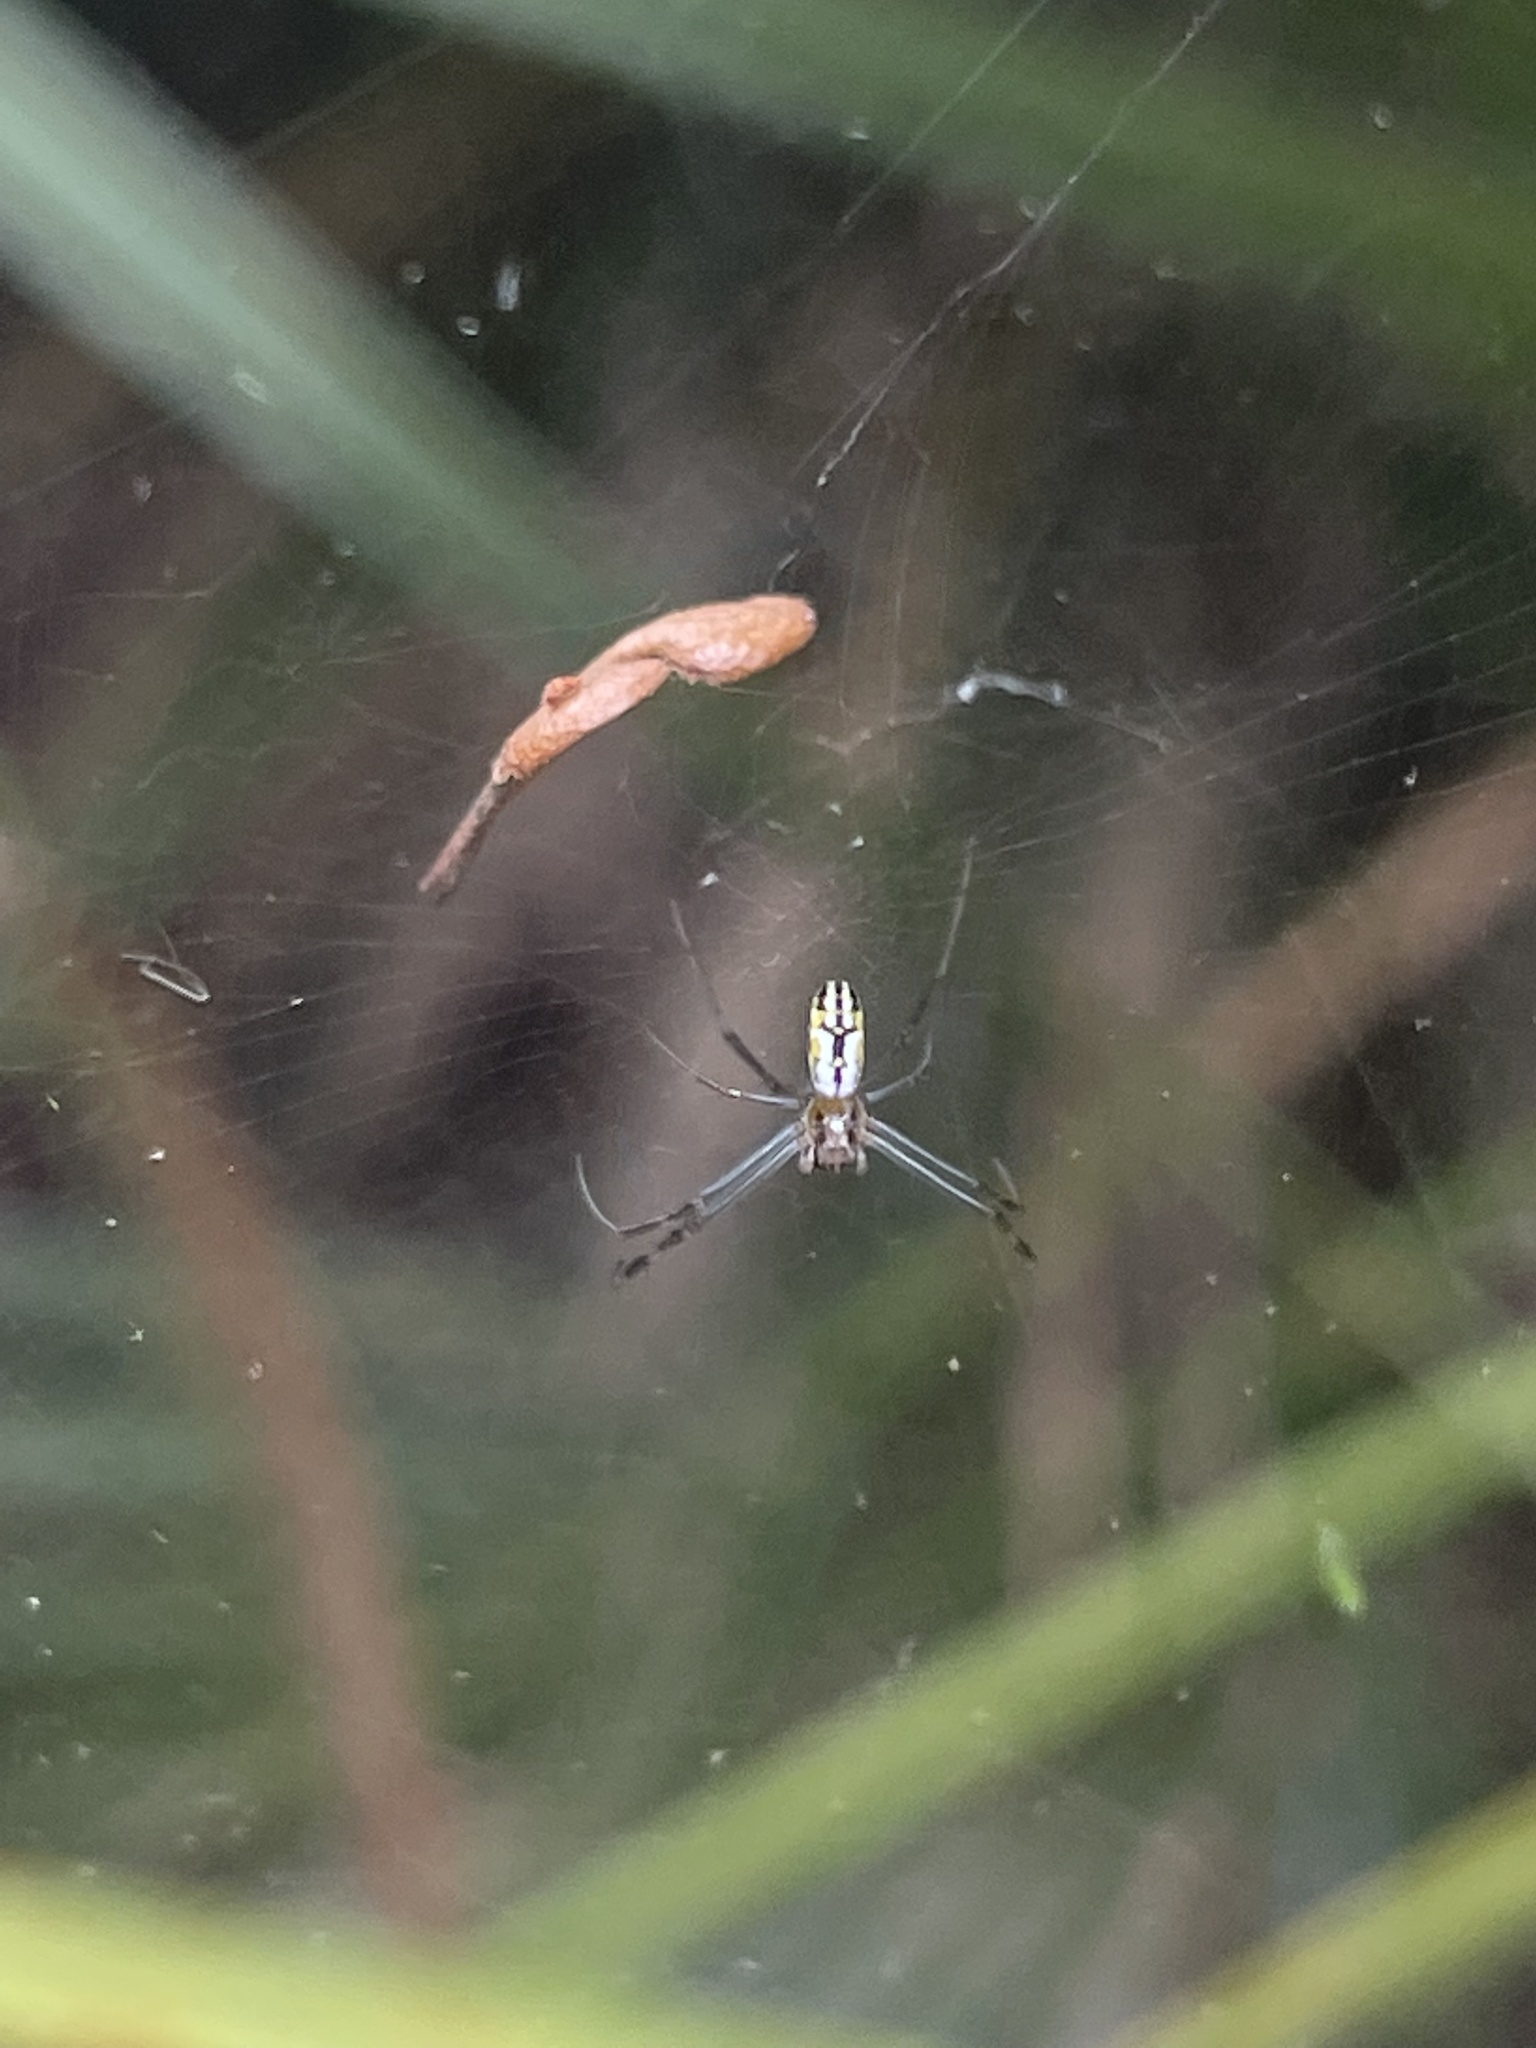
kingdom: Animalia
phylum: Arthropoda
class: Arachnida
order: Araneae
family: Araneidae
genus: Trichonephila
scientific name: Trichonephila clavipes
